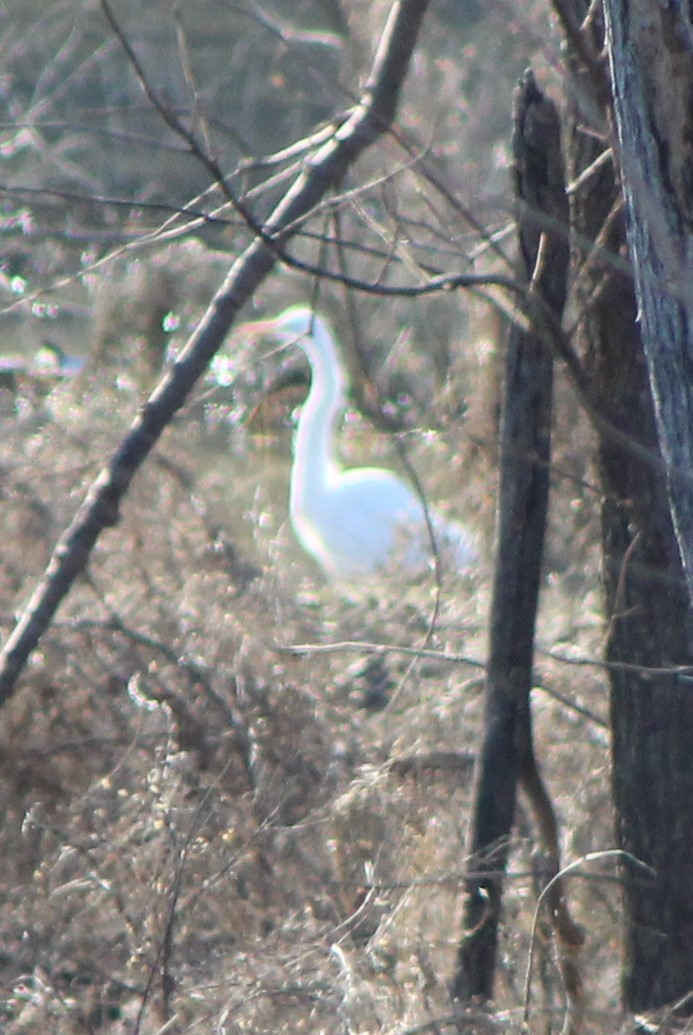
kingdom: Animalia
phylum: Chordata
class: Aves
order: Pelecaniformes
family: Ardeidae
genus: Ardea
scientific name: Ardea alba
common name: Great egret
